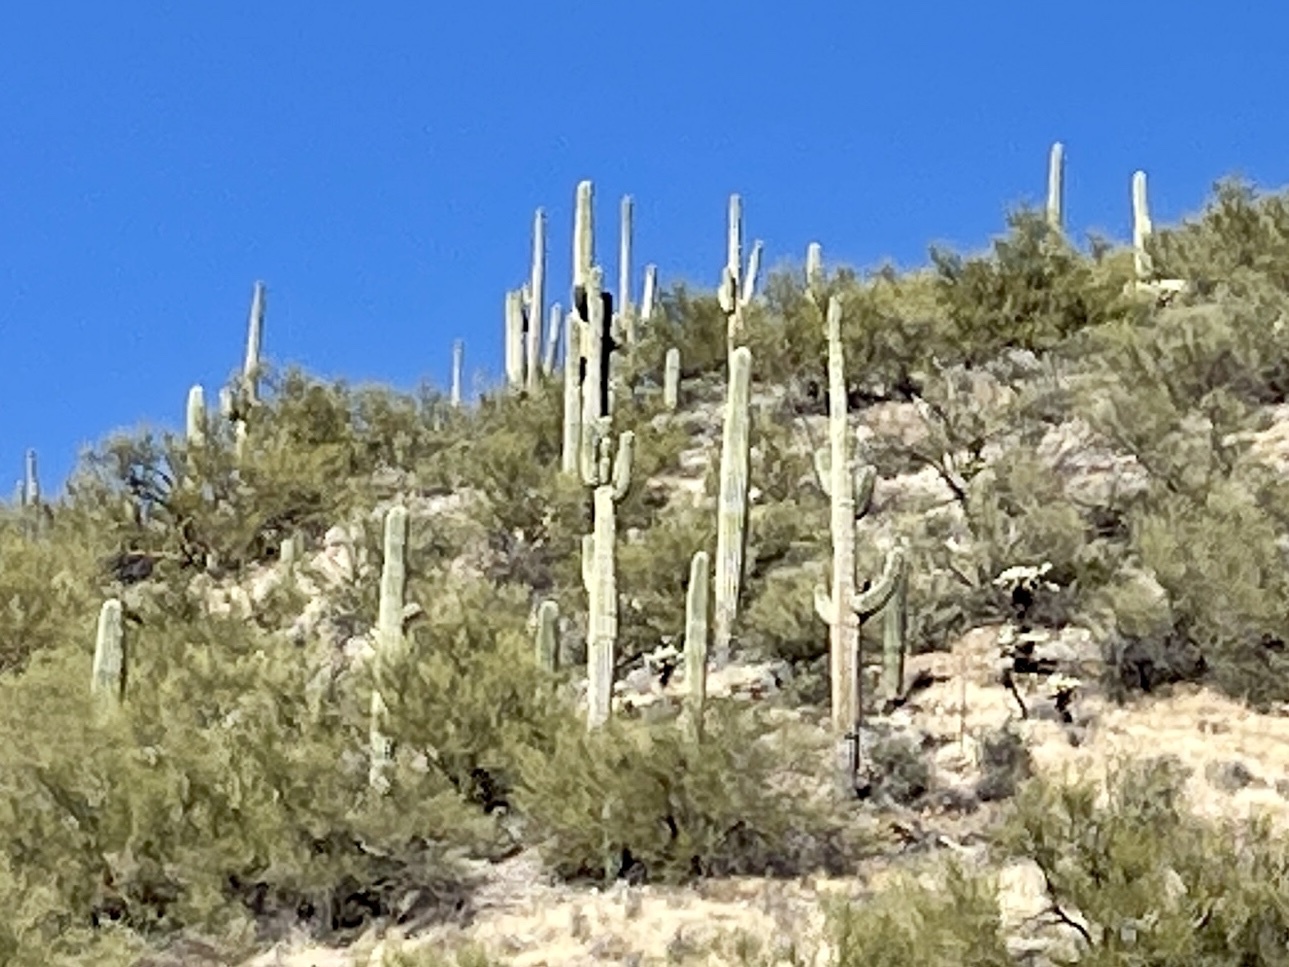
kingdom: Plantae
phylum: Tracheophyta
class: Magnoliopsida
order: Caryophyllales
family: Cactaceae
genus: Carnegiea
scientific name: Carnegiea gigantea
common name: Saguaro
